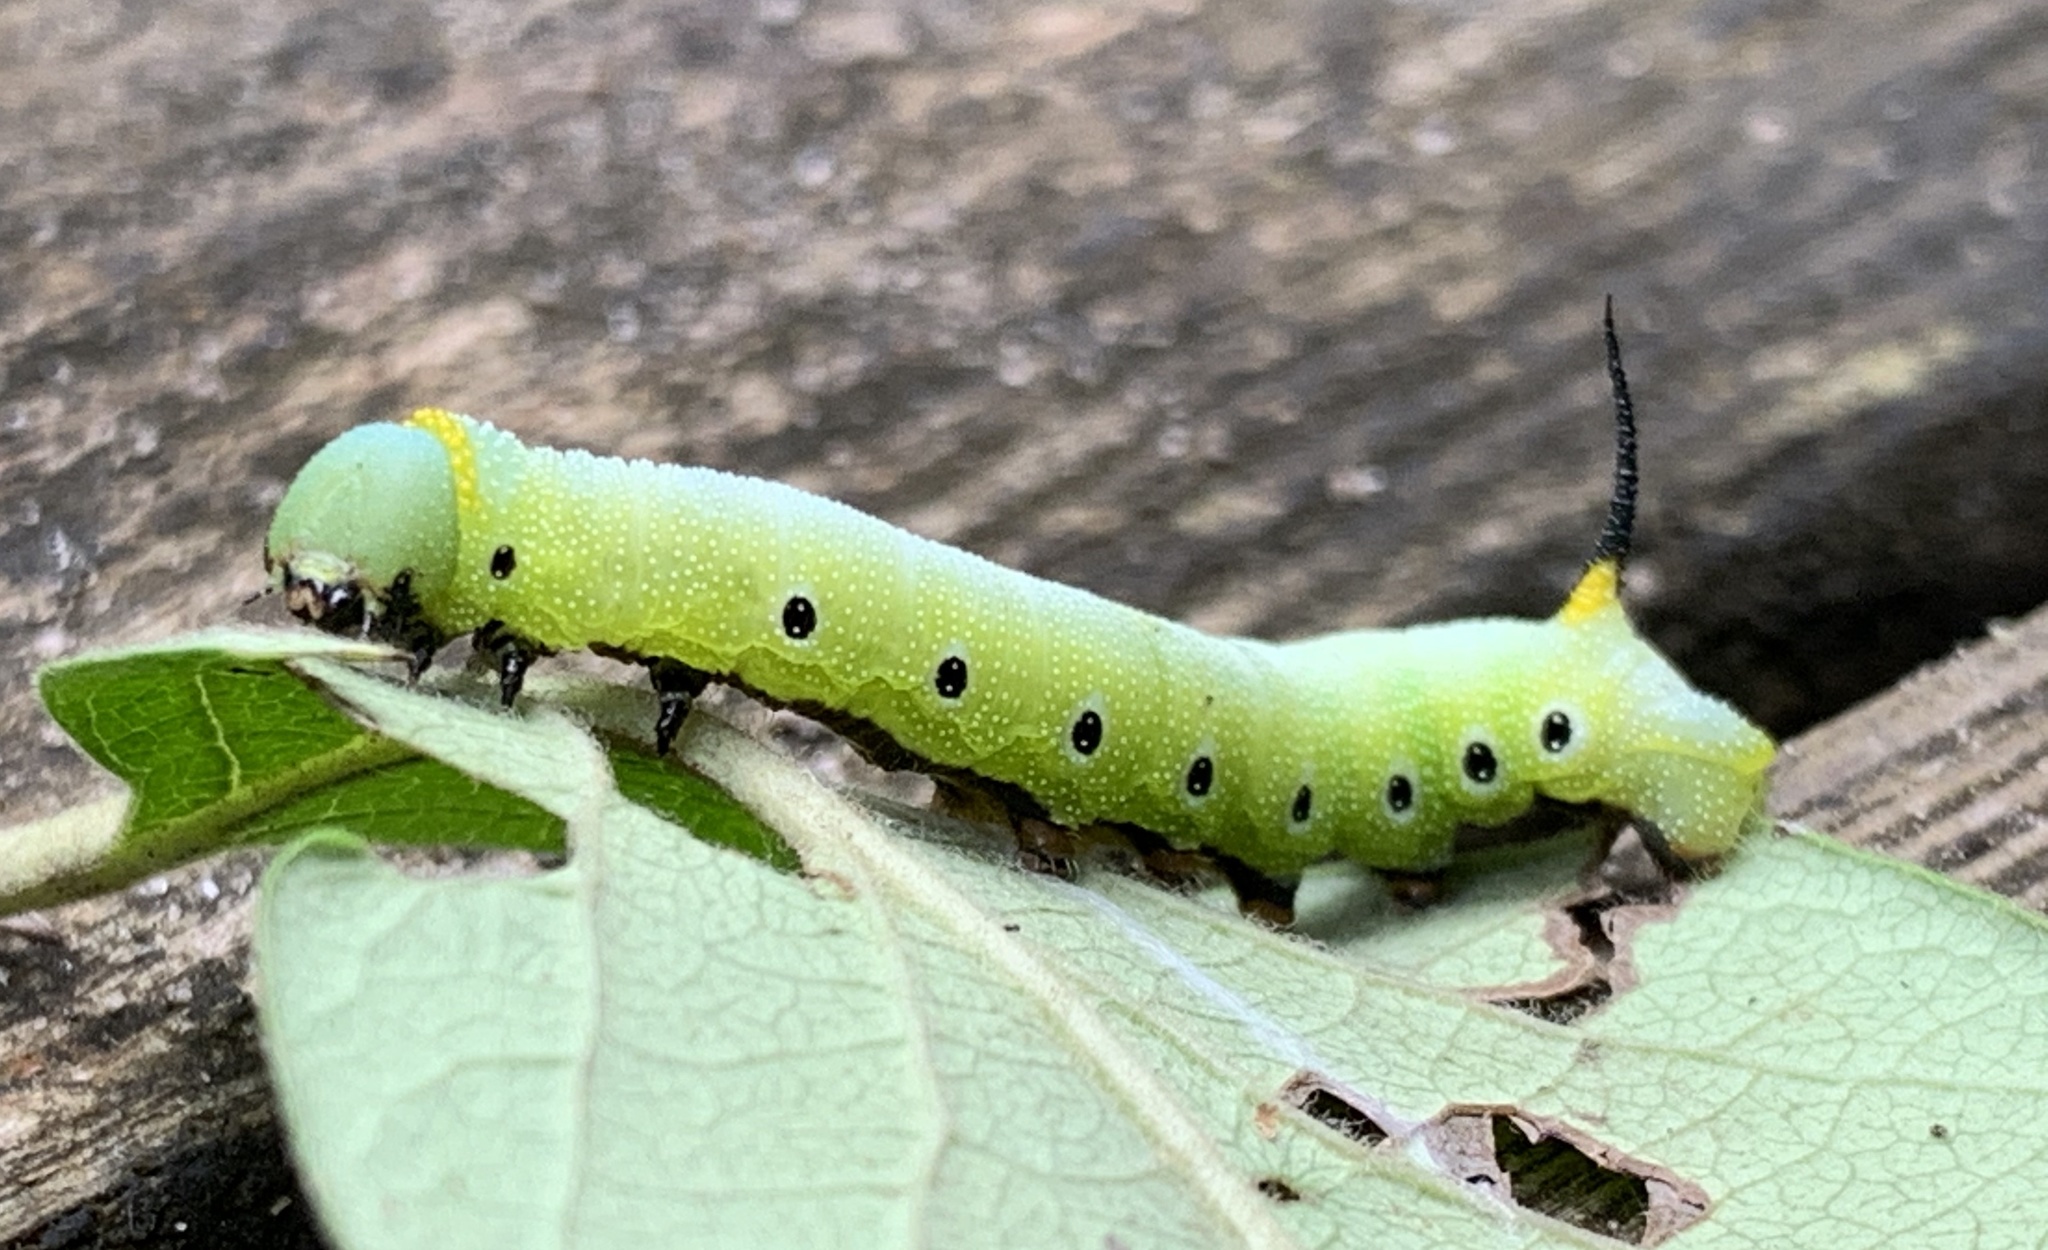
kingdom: Animalia
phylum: Arthropoda
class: Insecta
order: Lepidoptera
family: Sphingidae
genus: Hemaris
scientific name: Hemaris diffinis
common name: Bumblebee moth
